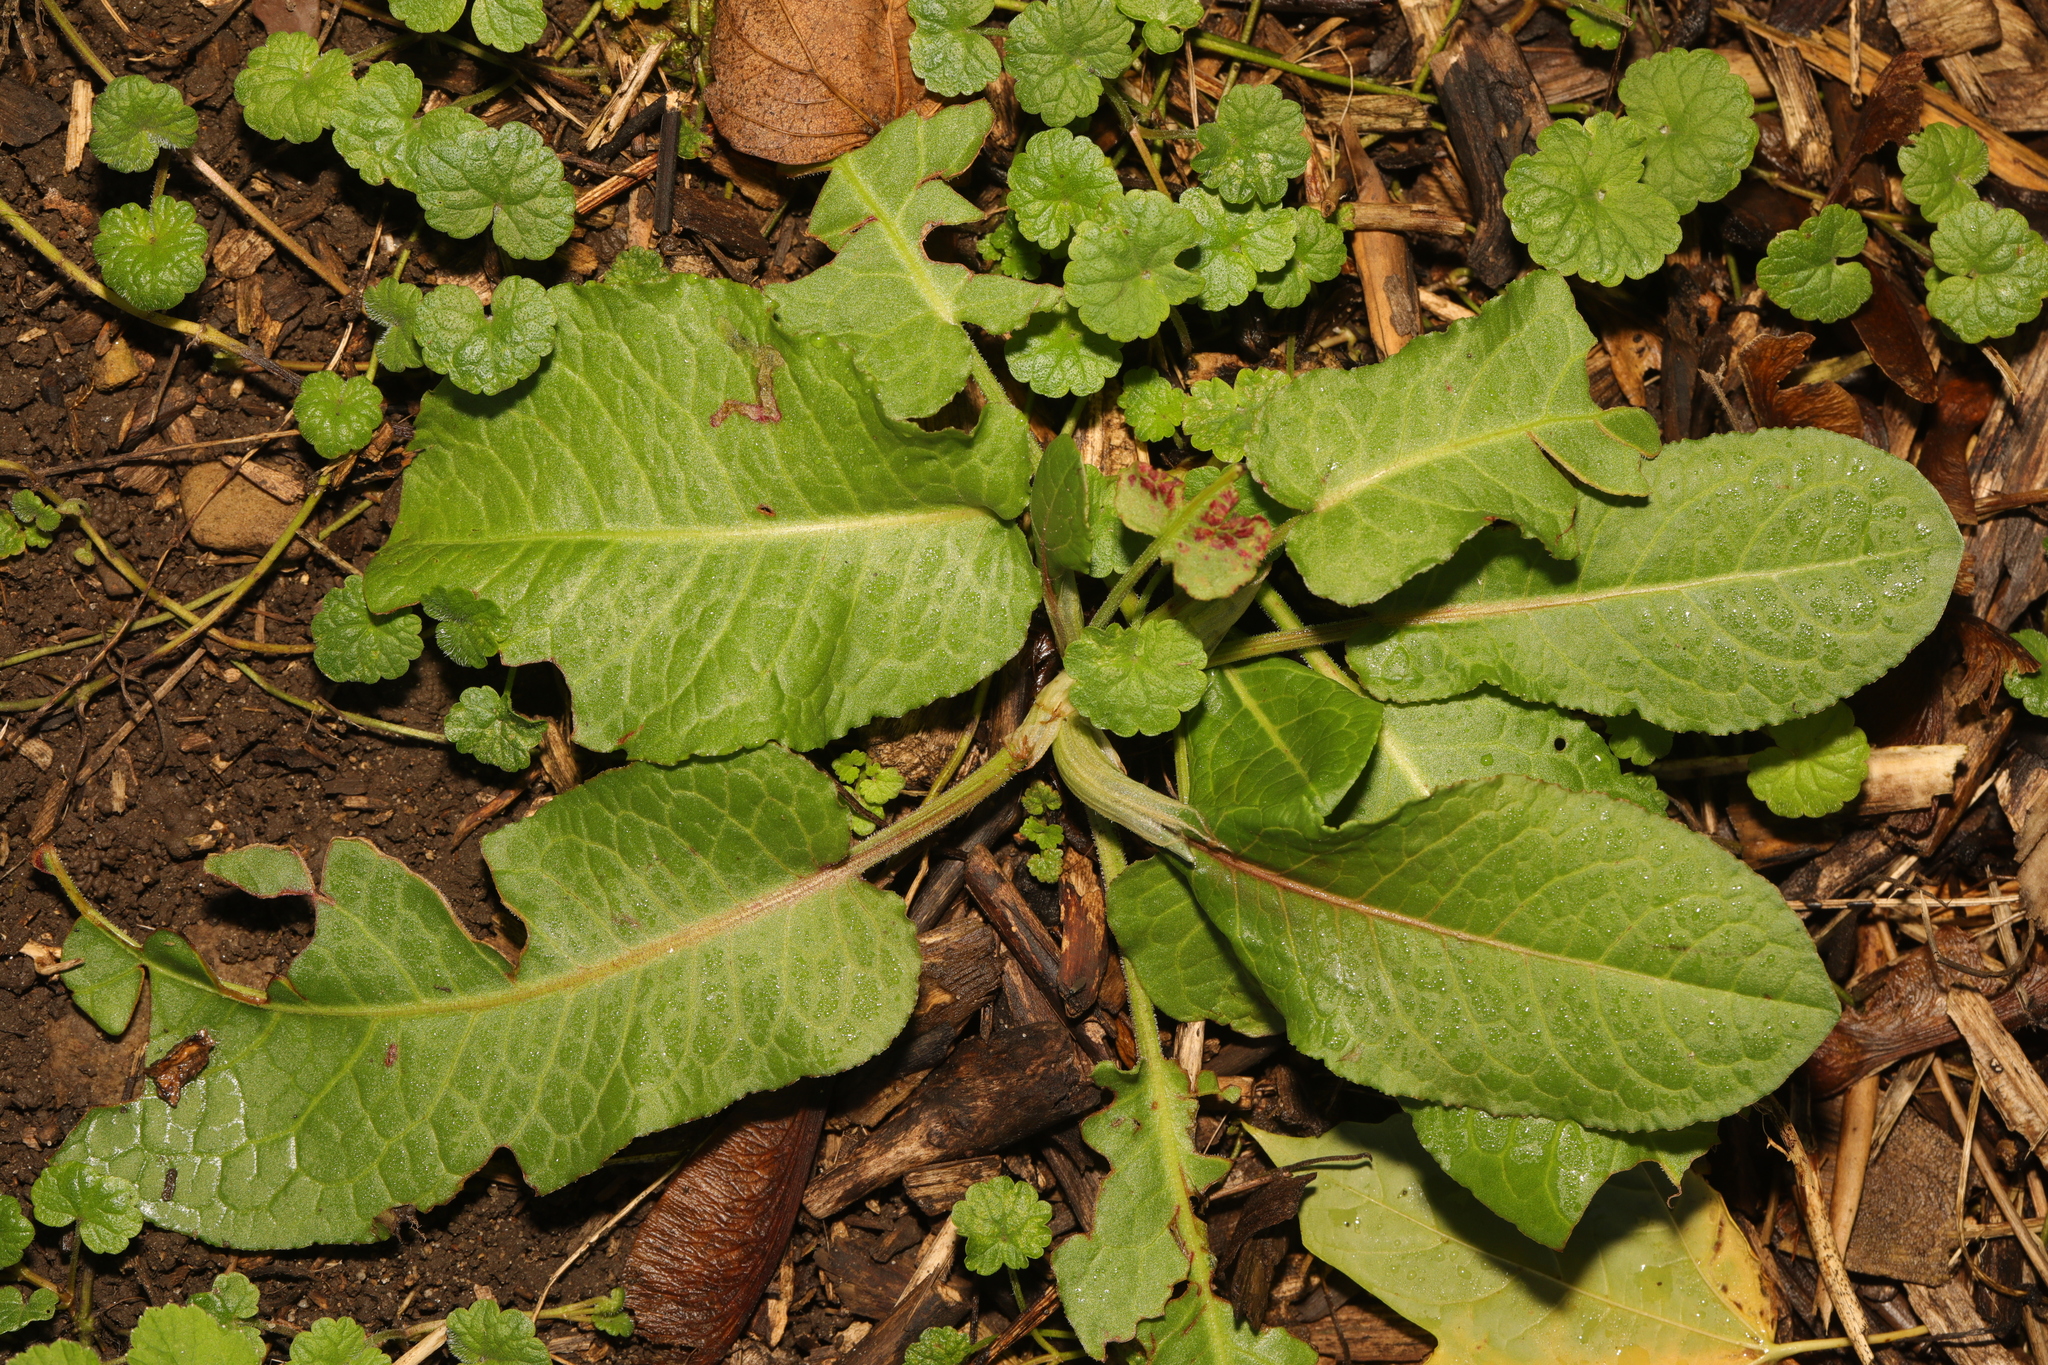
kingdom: Plantae
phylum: Tracheophyta
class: Magnoliopsida
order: Caryophyllales
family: Polygonaceae
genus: Rumex
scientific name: Rumex obtusifolius
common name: Bitter dock
